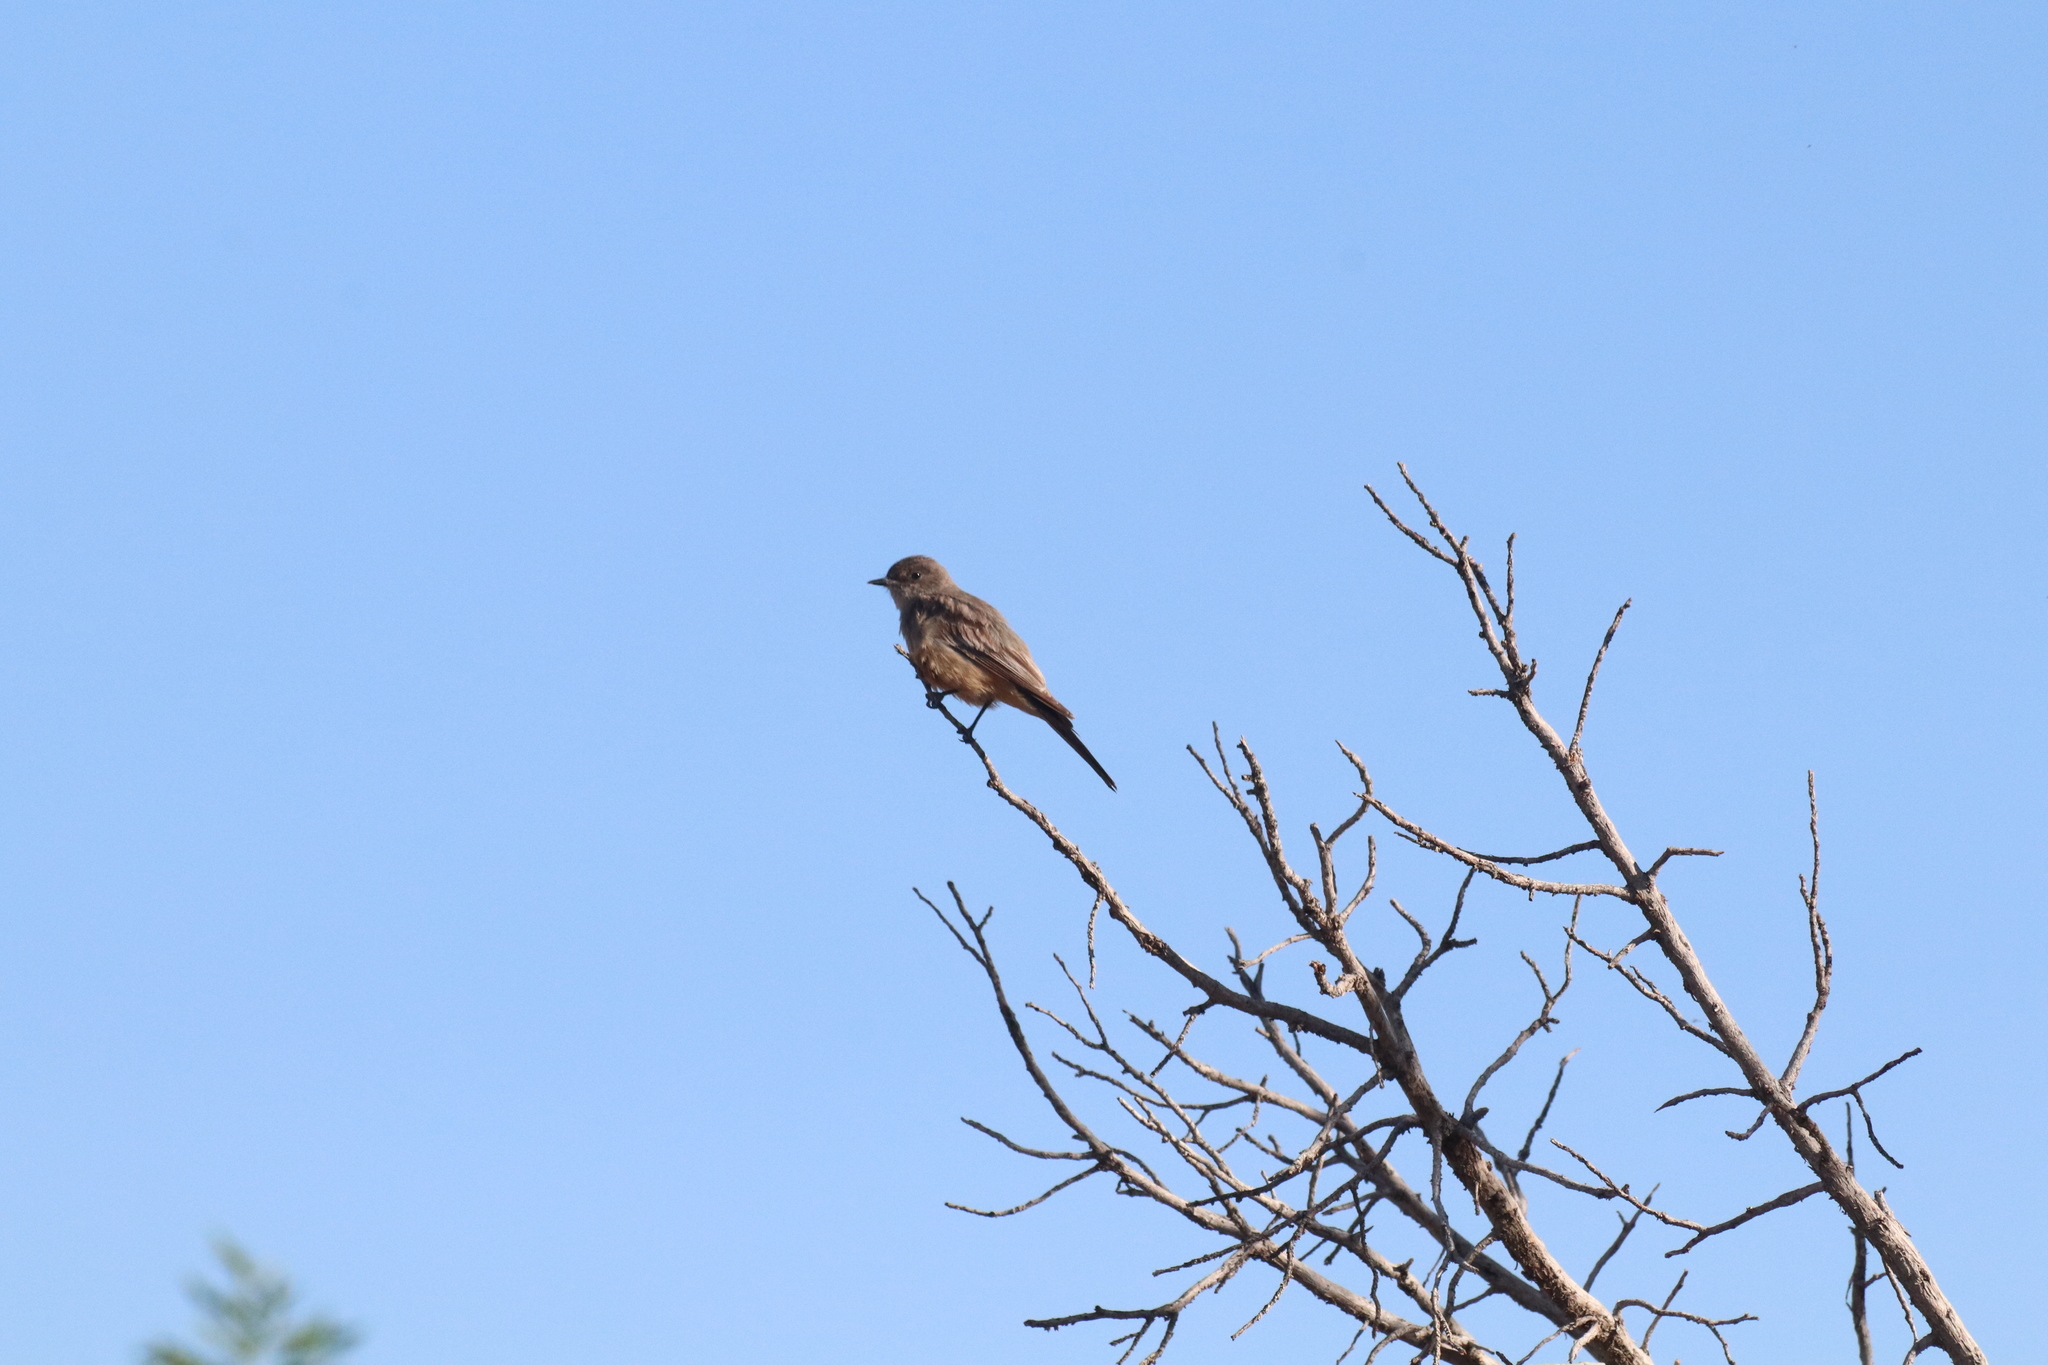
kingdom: Animalia
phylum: Chordata
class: Aves
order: Passeriformes
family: Tyrannidae
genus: Sayornis
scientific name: Sayornis saya
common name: Say's phoebe
